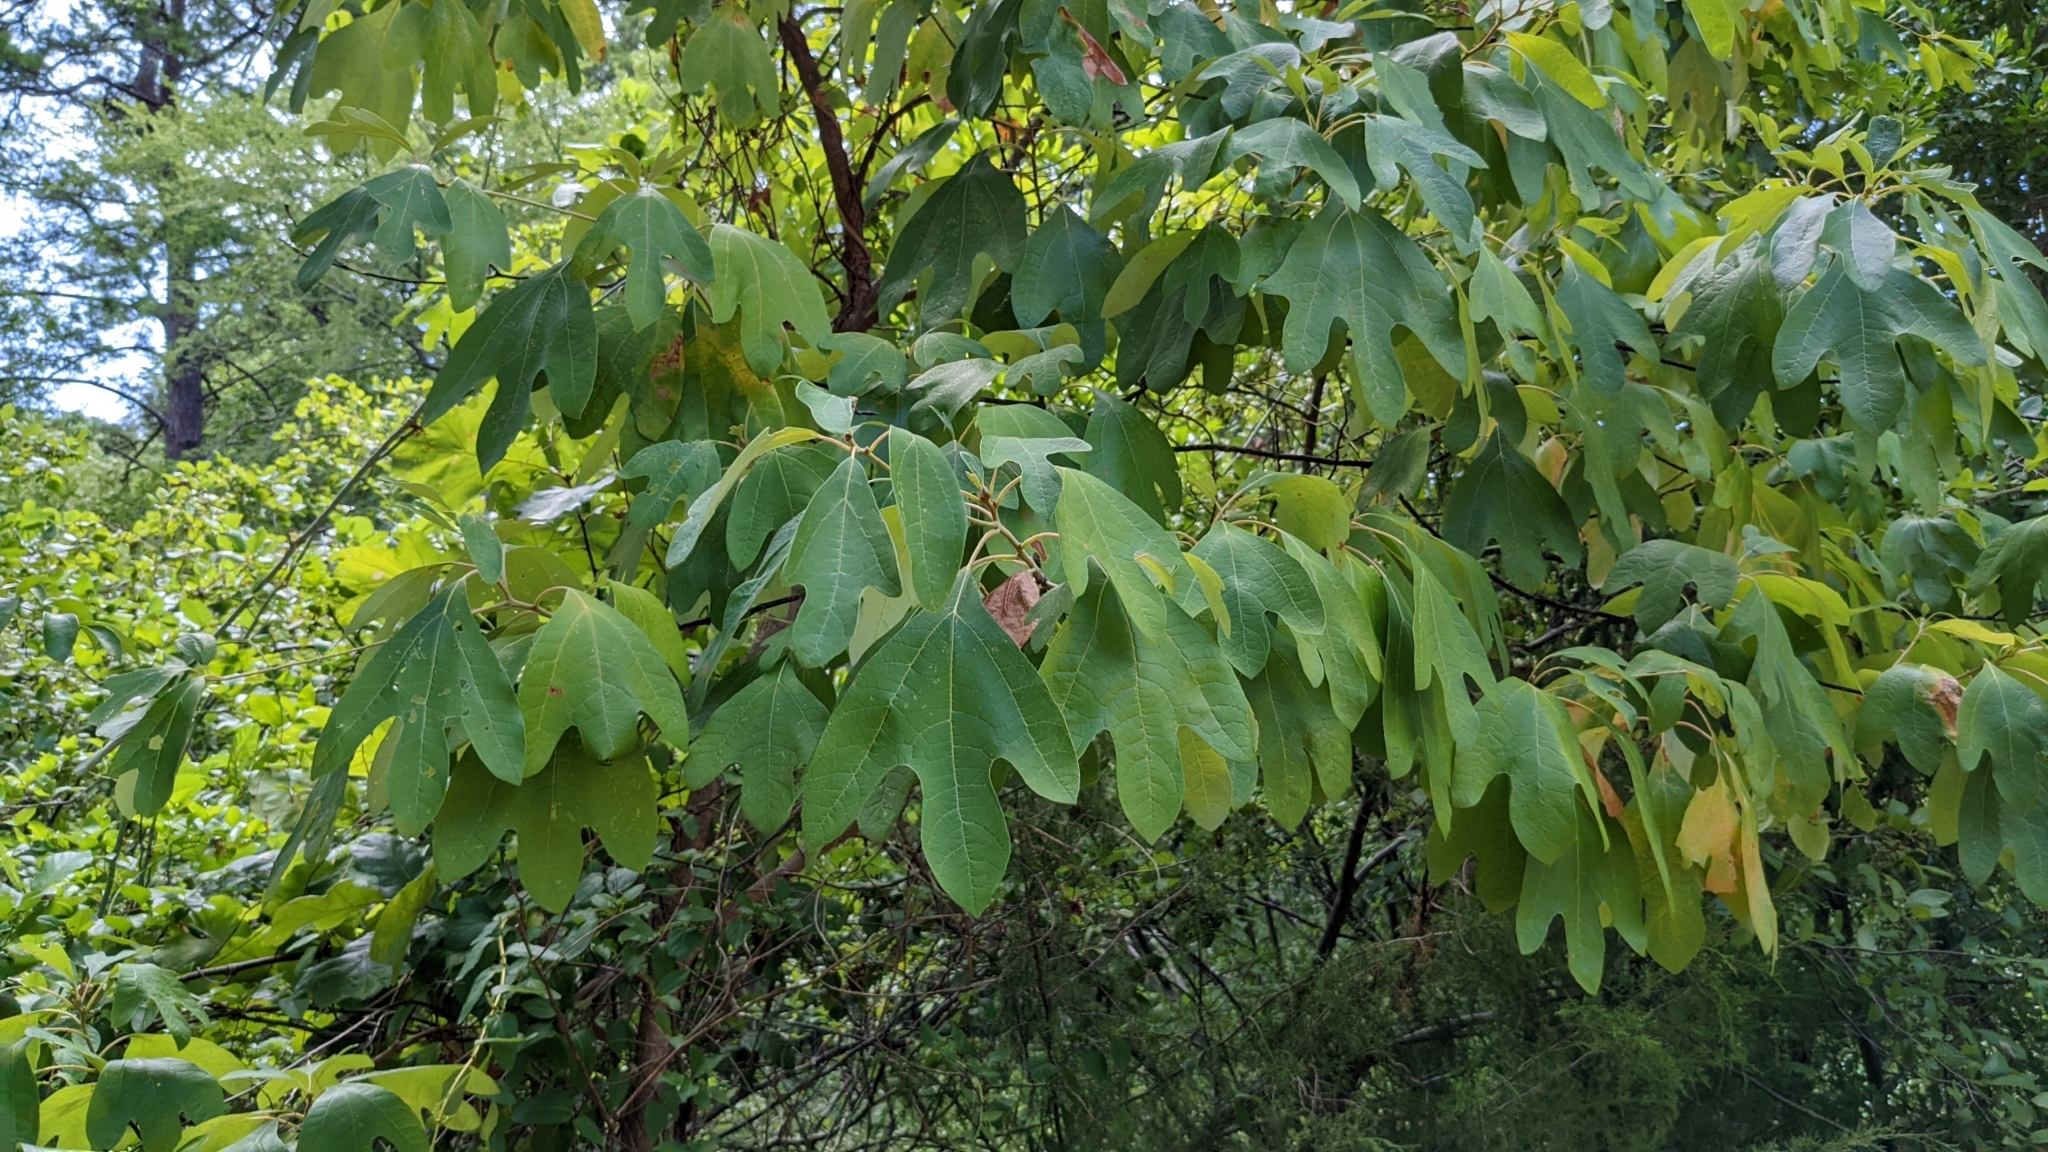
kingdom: Plantae
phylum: Tracheophyta
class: Magnoliopsida
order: Laurales
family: Lauraceae
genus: Sassafras
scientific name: Sassafras albidum
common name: Sassafras
